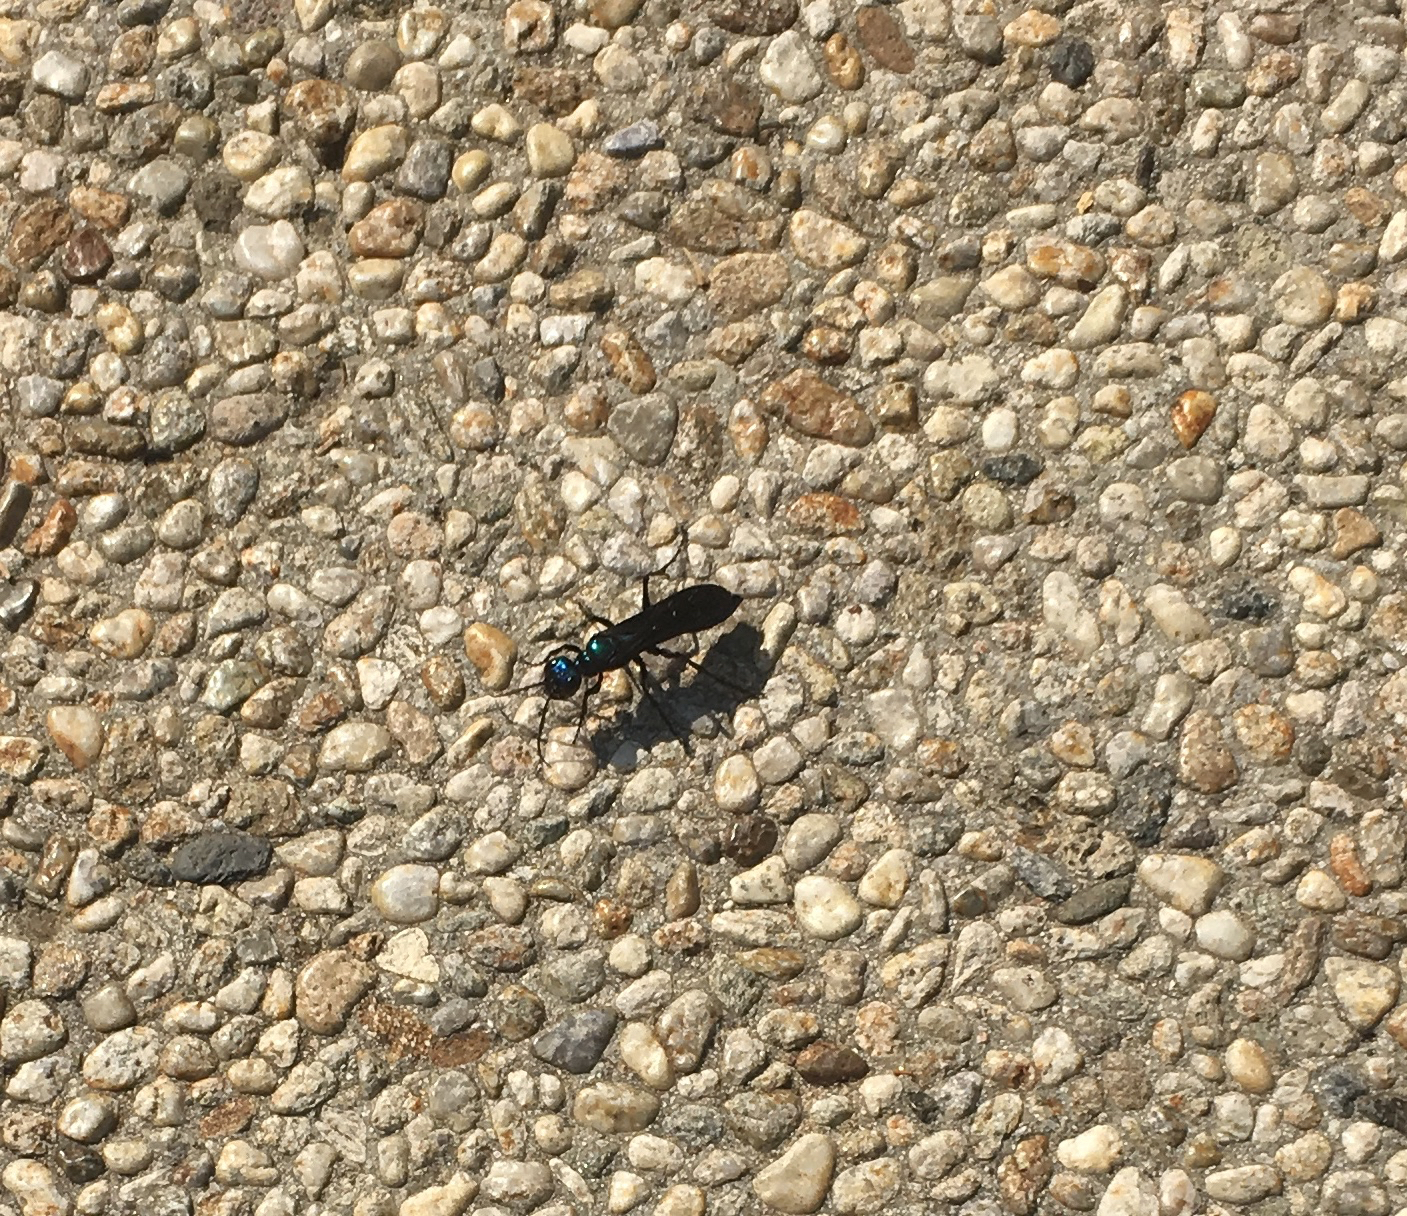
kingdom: Animalia
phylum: Arthropoda
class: Insecta
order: Hymenoptera
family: Sphecidae
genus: Chlorion
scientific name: Chlorion aerarium
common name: Steel-blue cricket hunter
